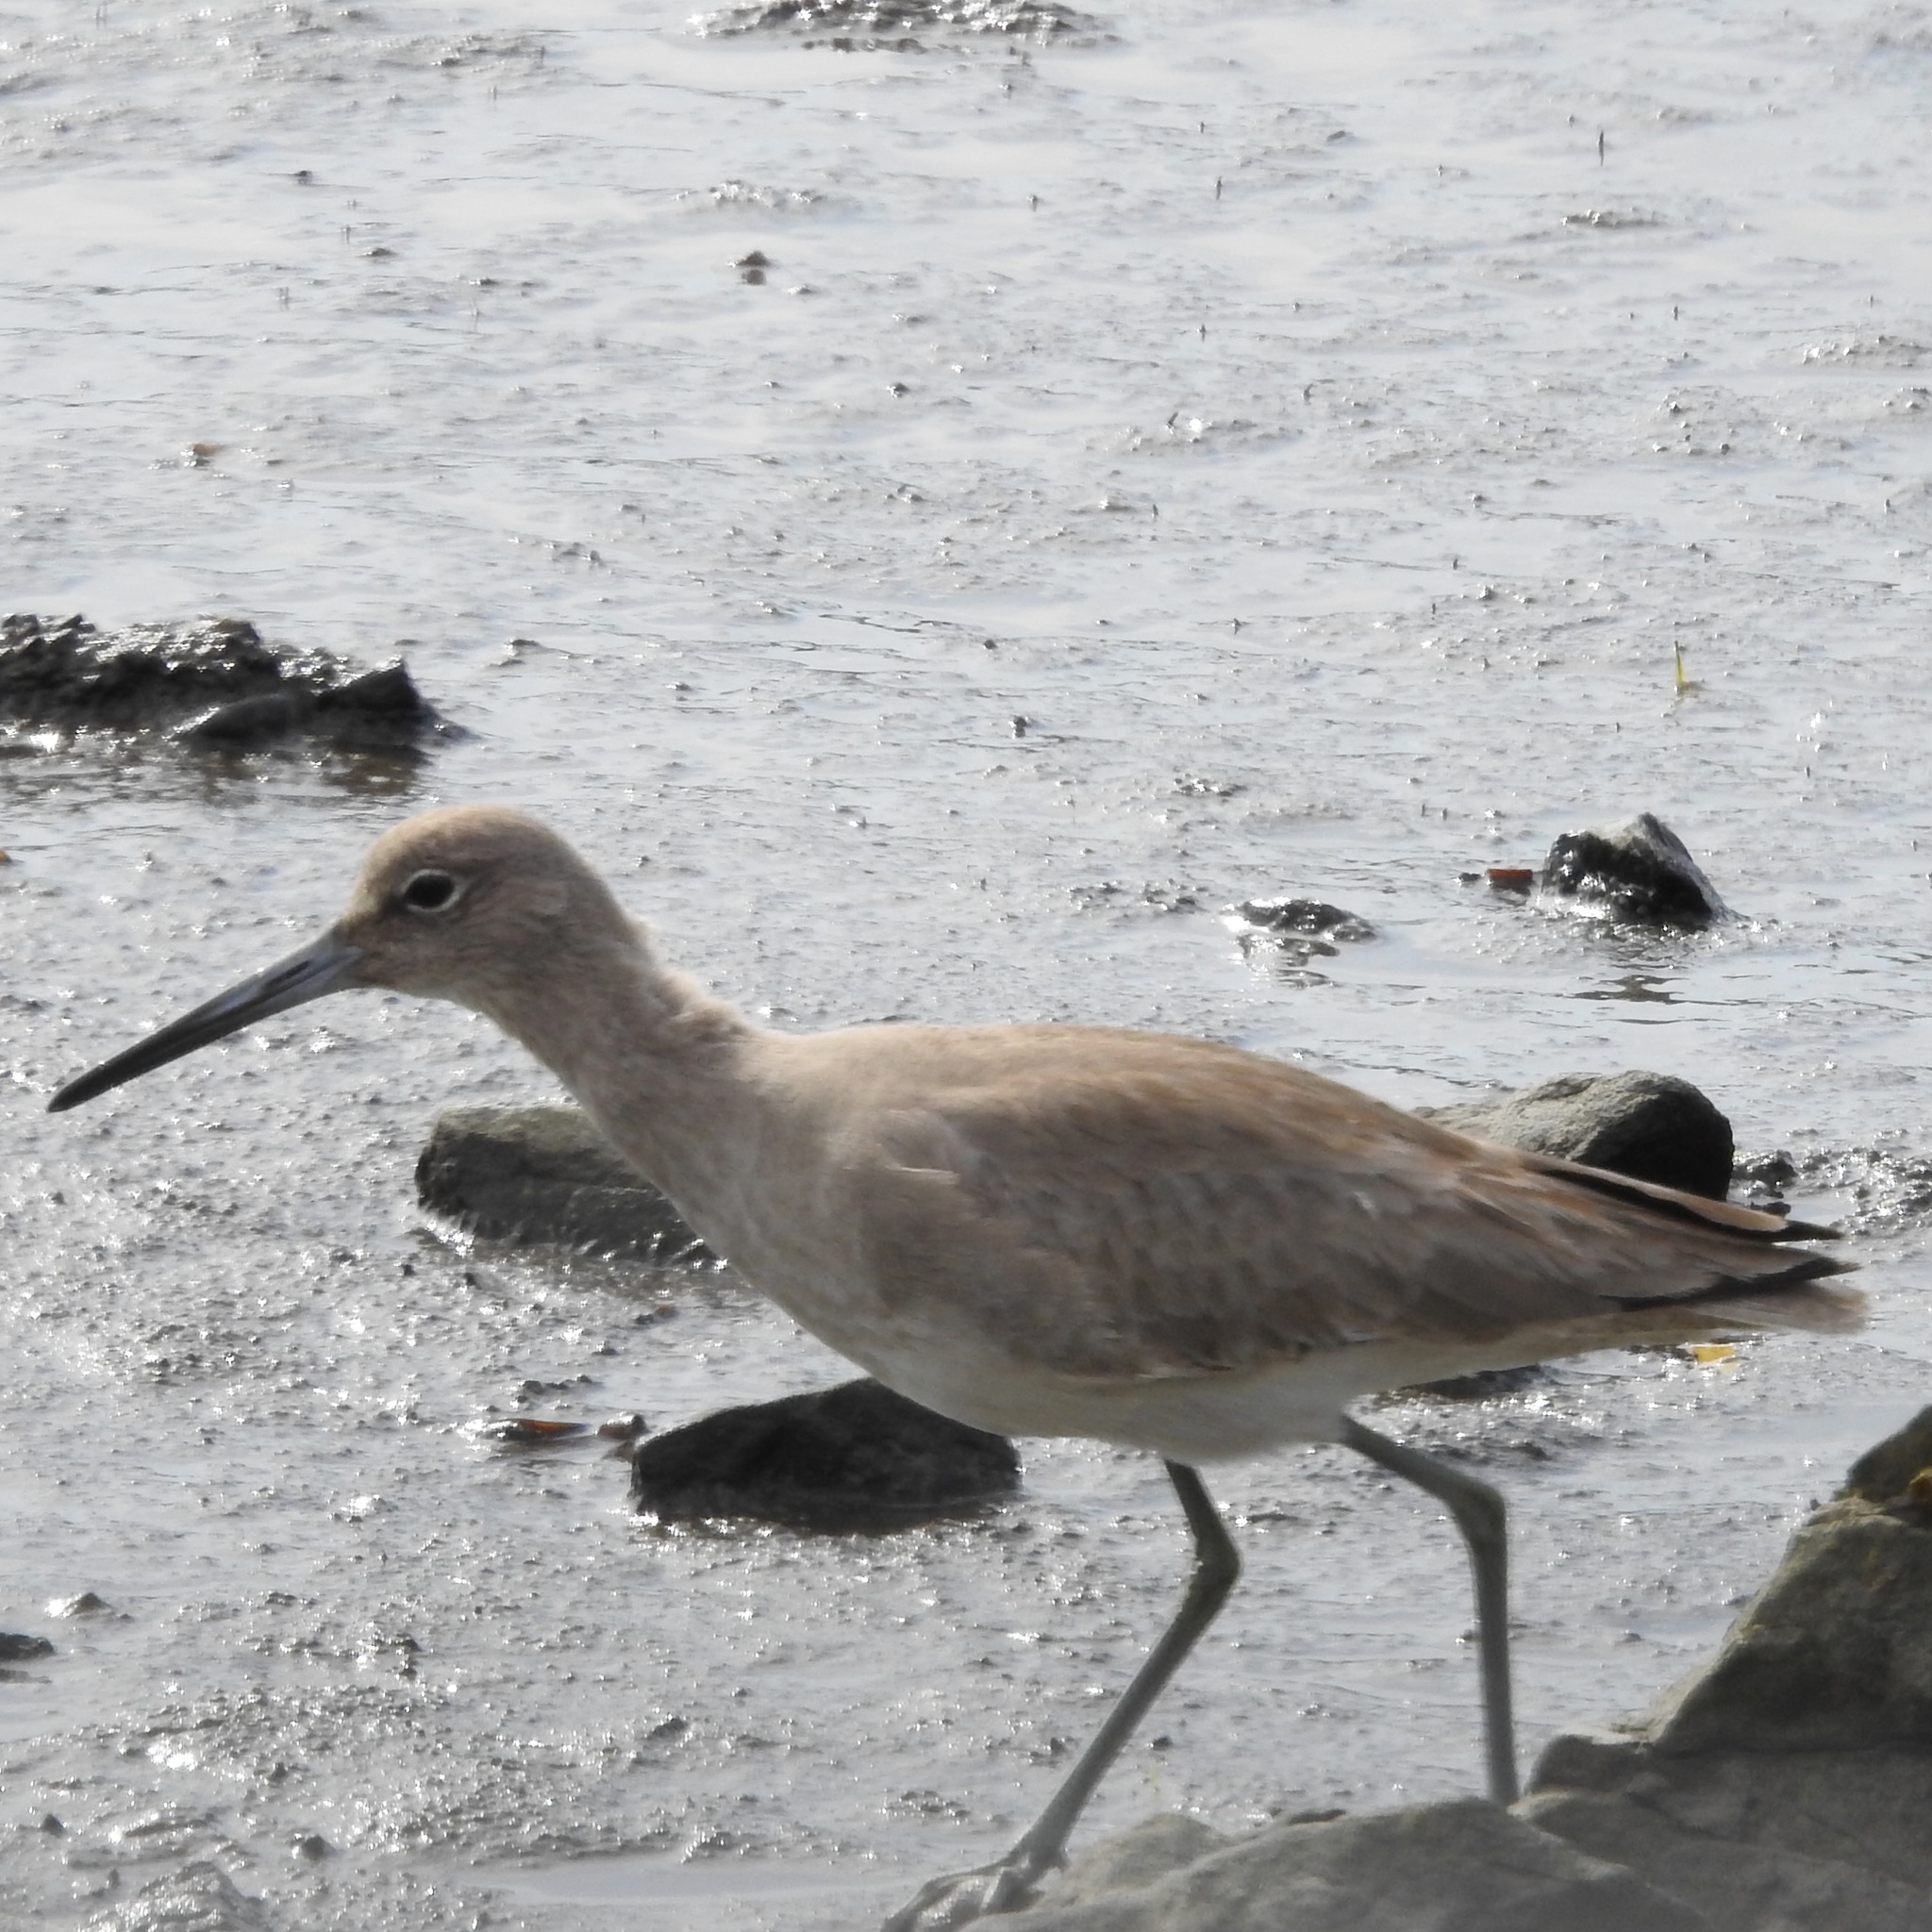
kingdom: Animalia
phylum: Chordata
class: Aves
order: Charadriiformes
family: Scolopacidae
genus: Tringa
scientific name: Tringa semipalmata
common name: Willet
